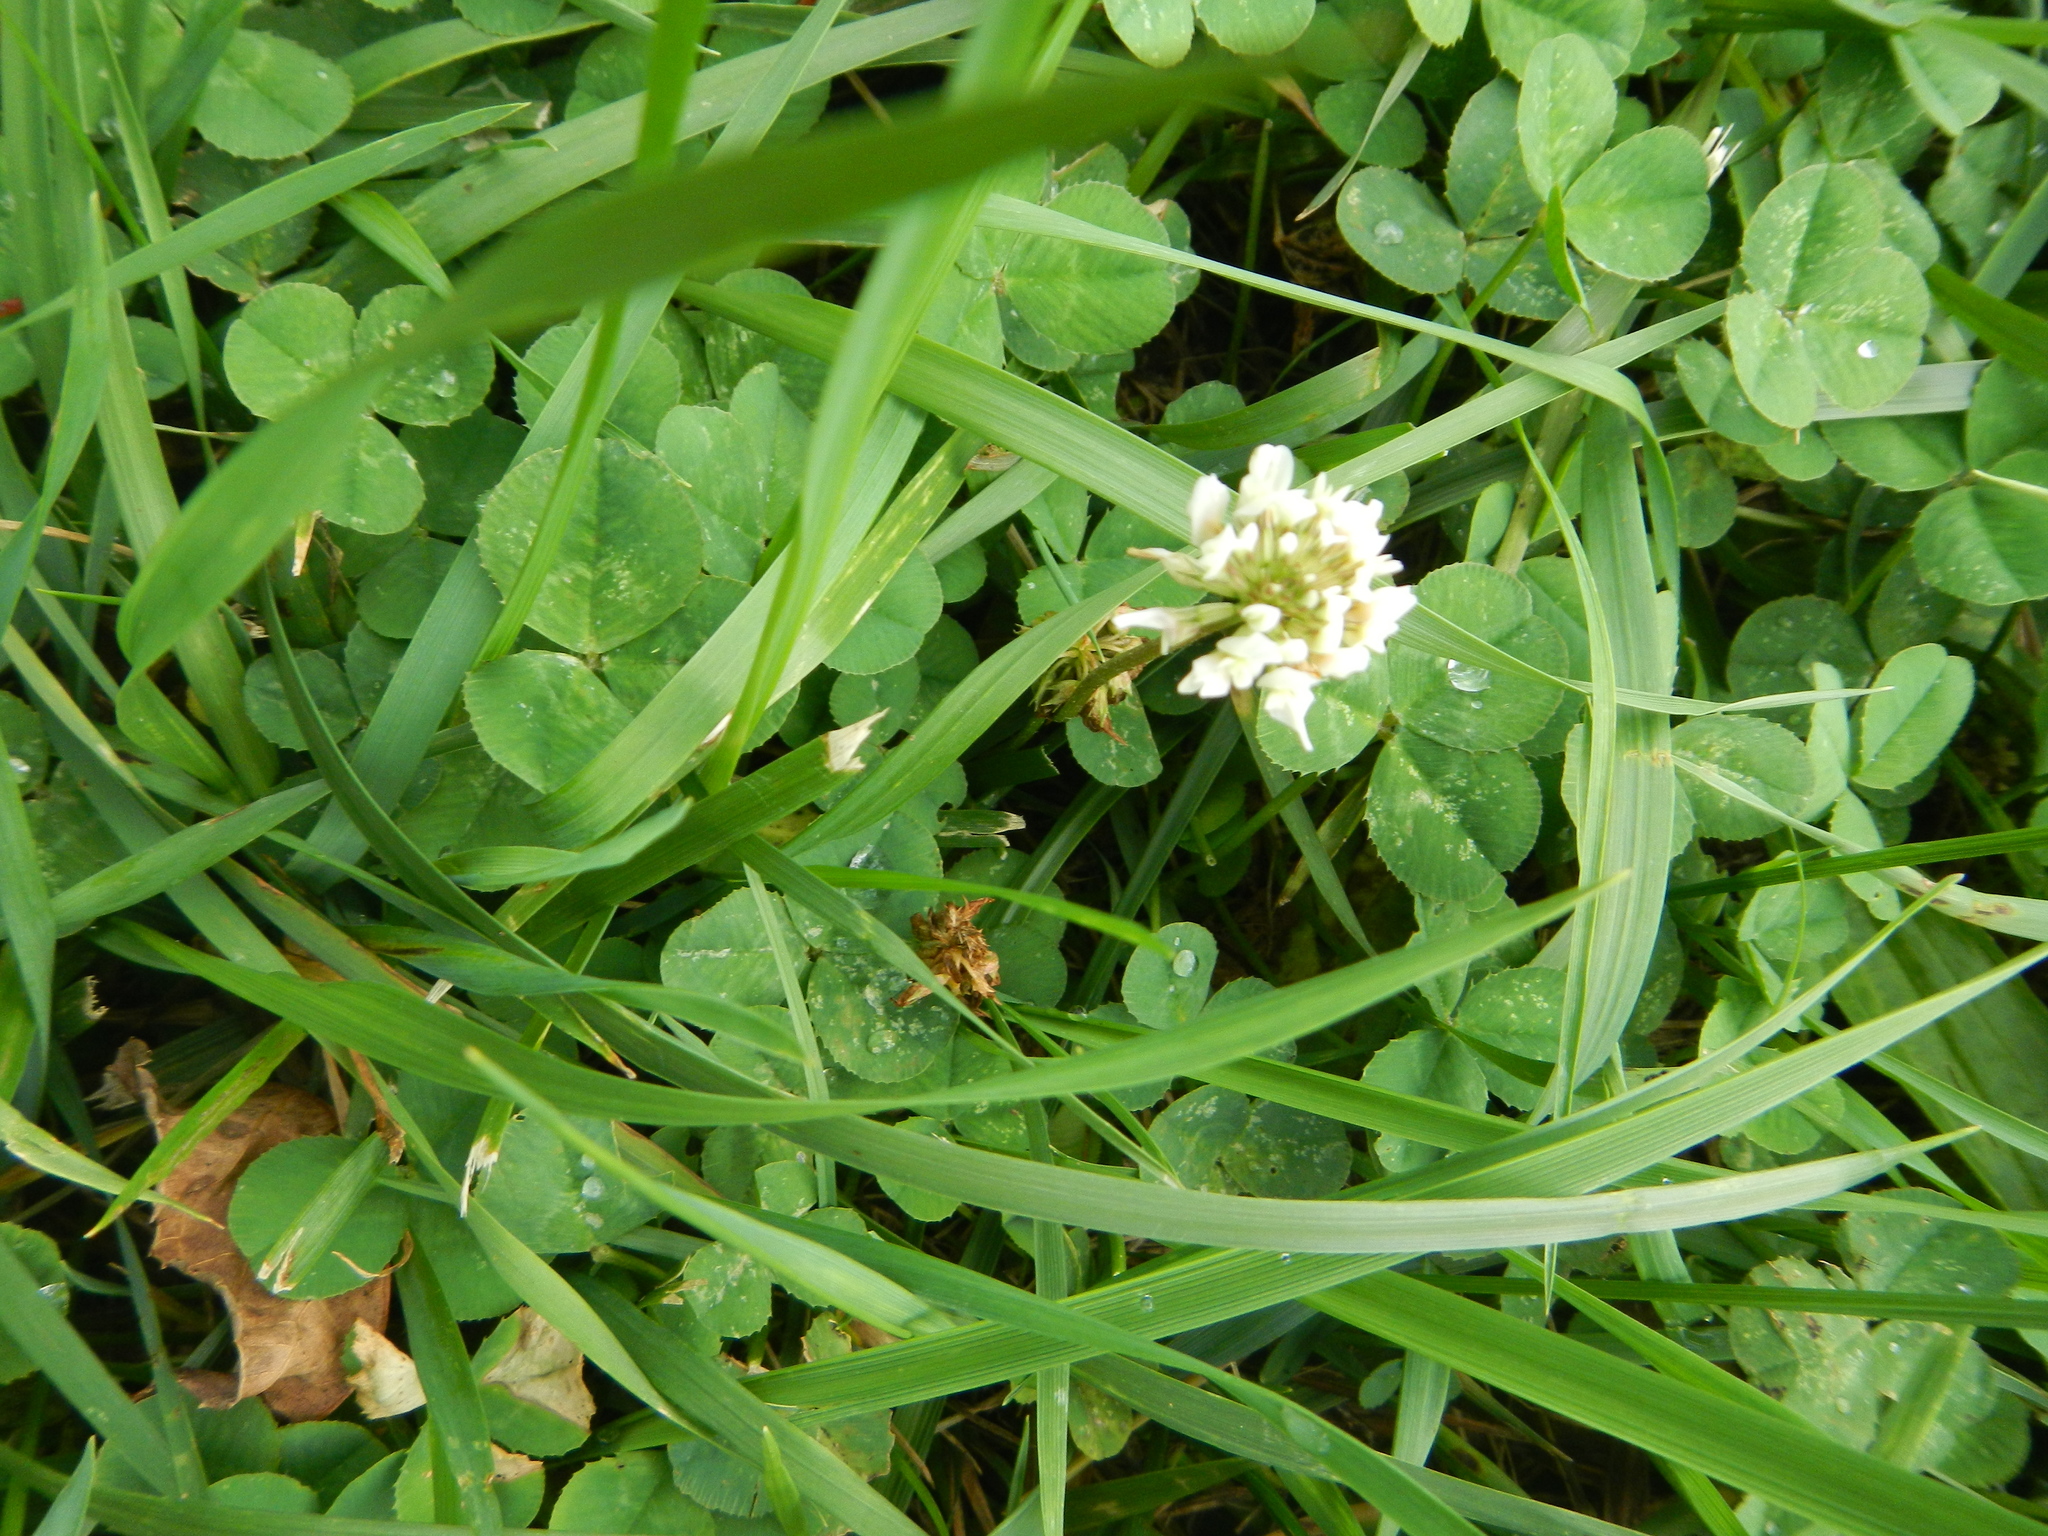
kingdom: Plantae
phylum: Tracheophyta
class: Magnoliopsida
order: Fabales
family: Fabaceae
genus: Trifolium
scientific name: Trifolium repens
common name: White clover
